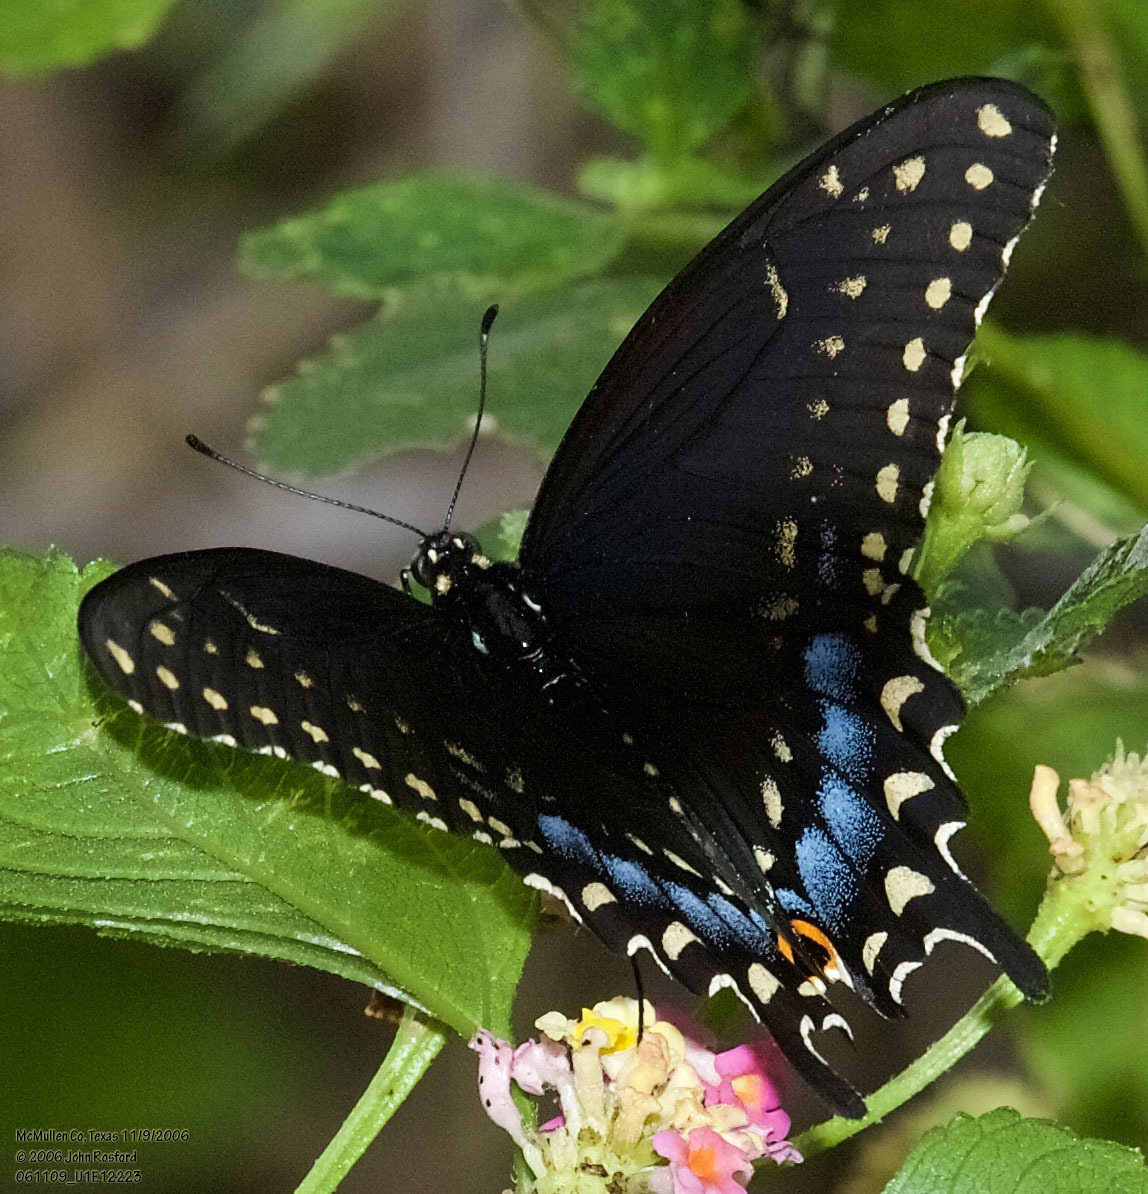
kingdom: Animalia
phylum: Arthropoda
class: Insecta
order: Lepidoptera
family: Papilionidae
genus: Papilio
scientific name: Papilio polyxenes
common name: Black swallowtail
